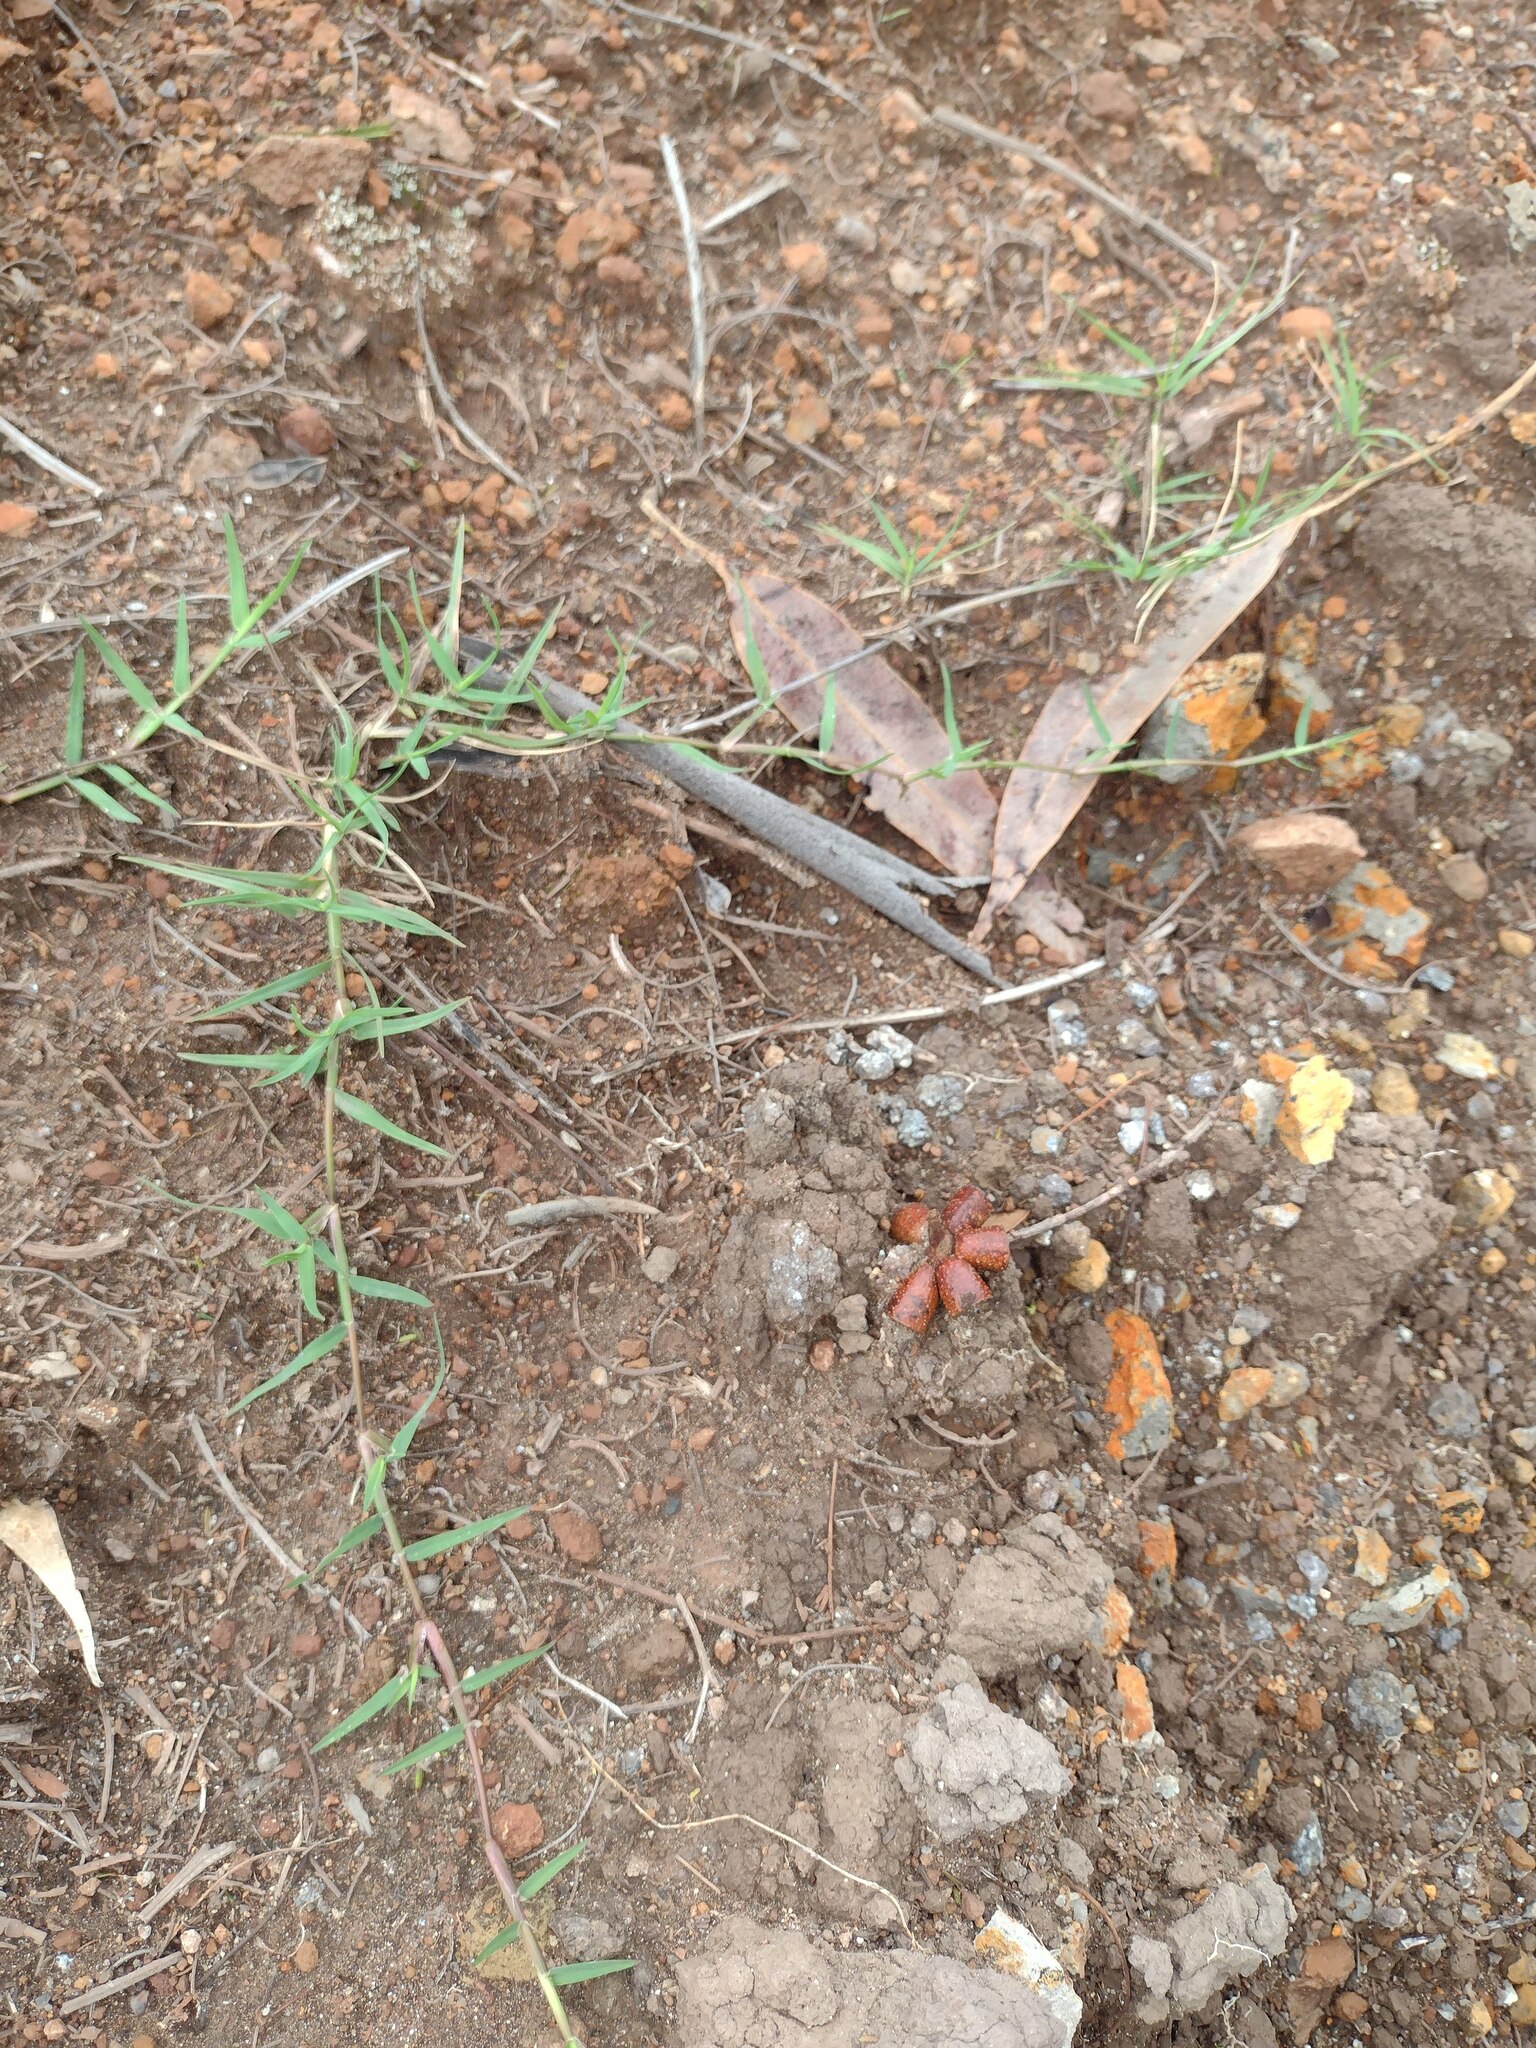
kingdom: Plantae
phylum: Tracheophyta
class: Liliopsida
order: Poales
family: Poaceae
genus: Cynodon
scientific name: Cynodon dactylon
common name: Bermuda grass
